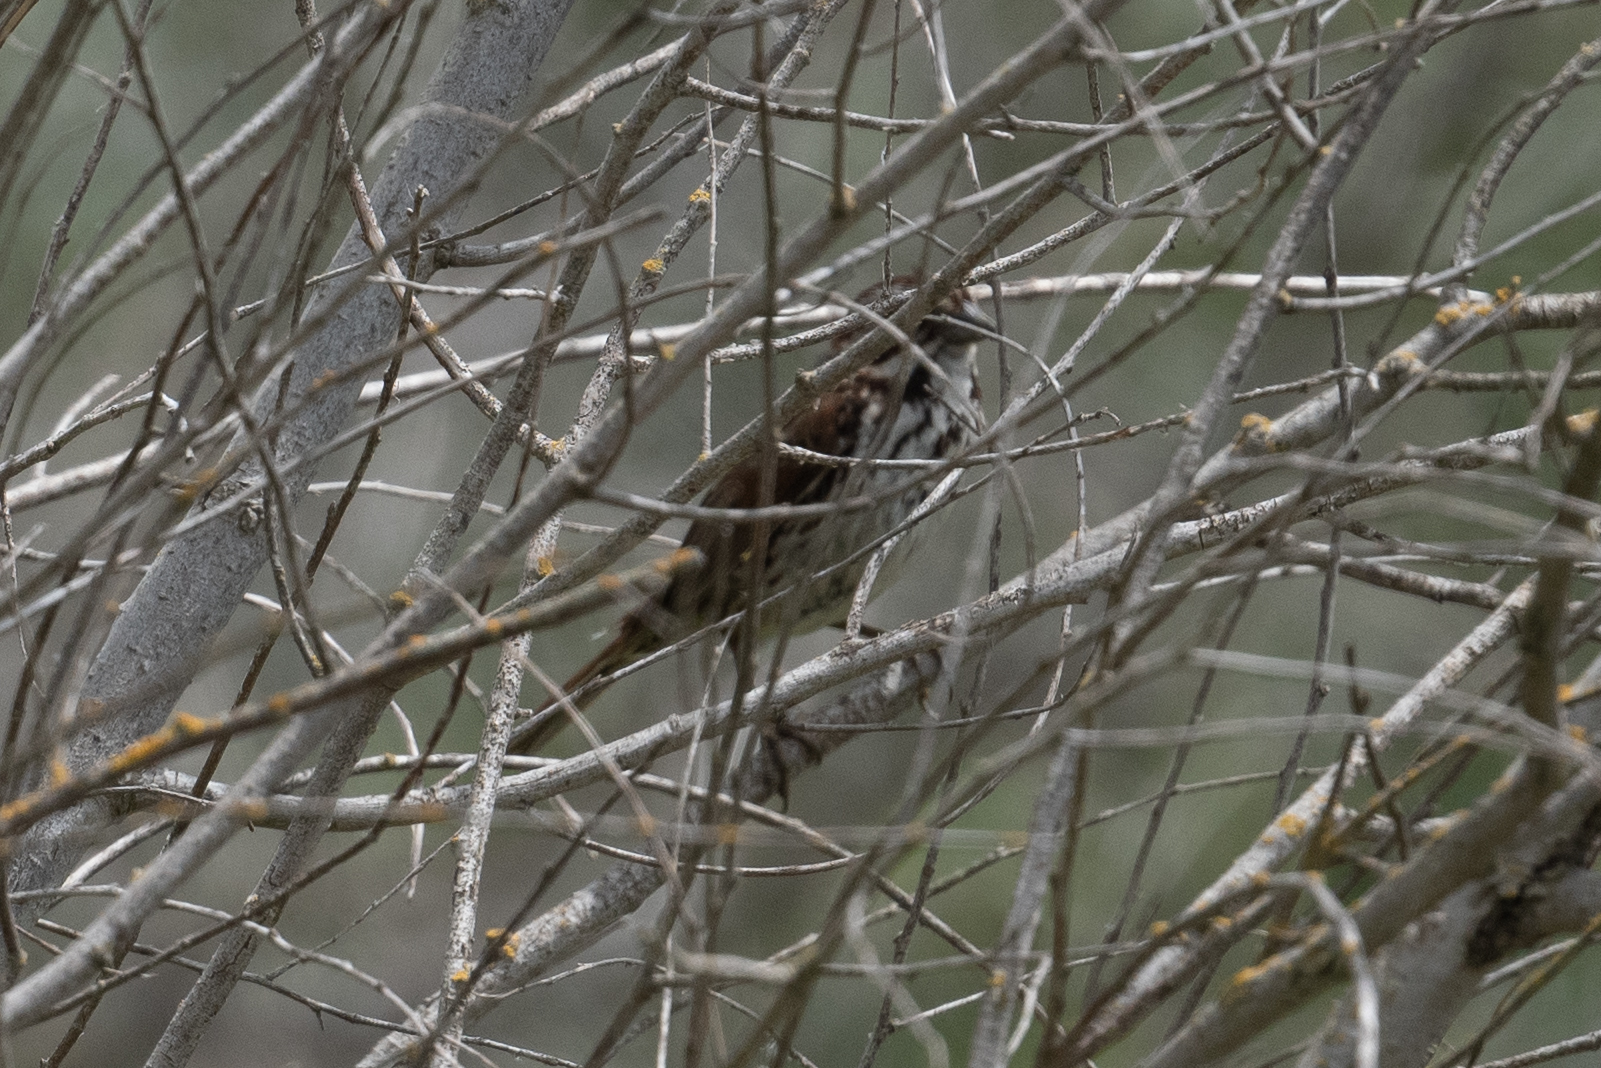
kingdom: Animalia
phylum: Chordata
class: Aves
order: Passeriformes
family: Passerellidae
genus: Melospiza
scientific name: Melospiza melodia
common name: Song sparrow
